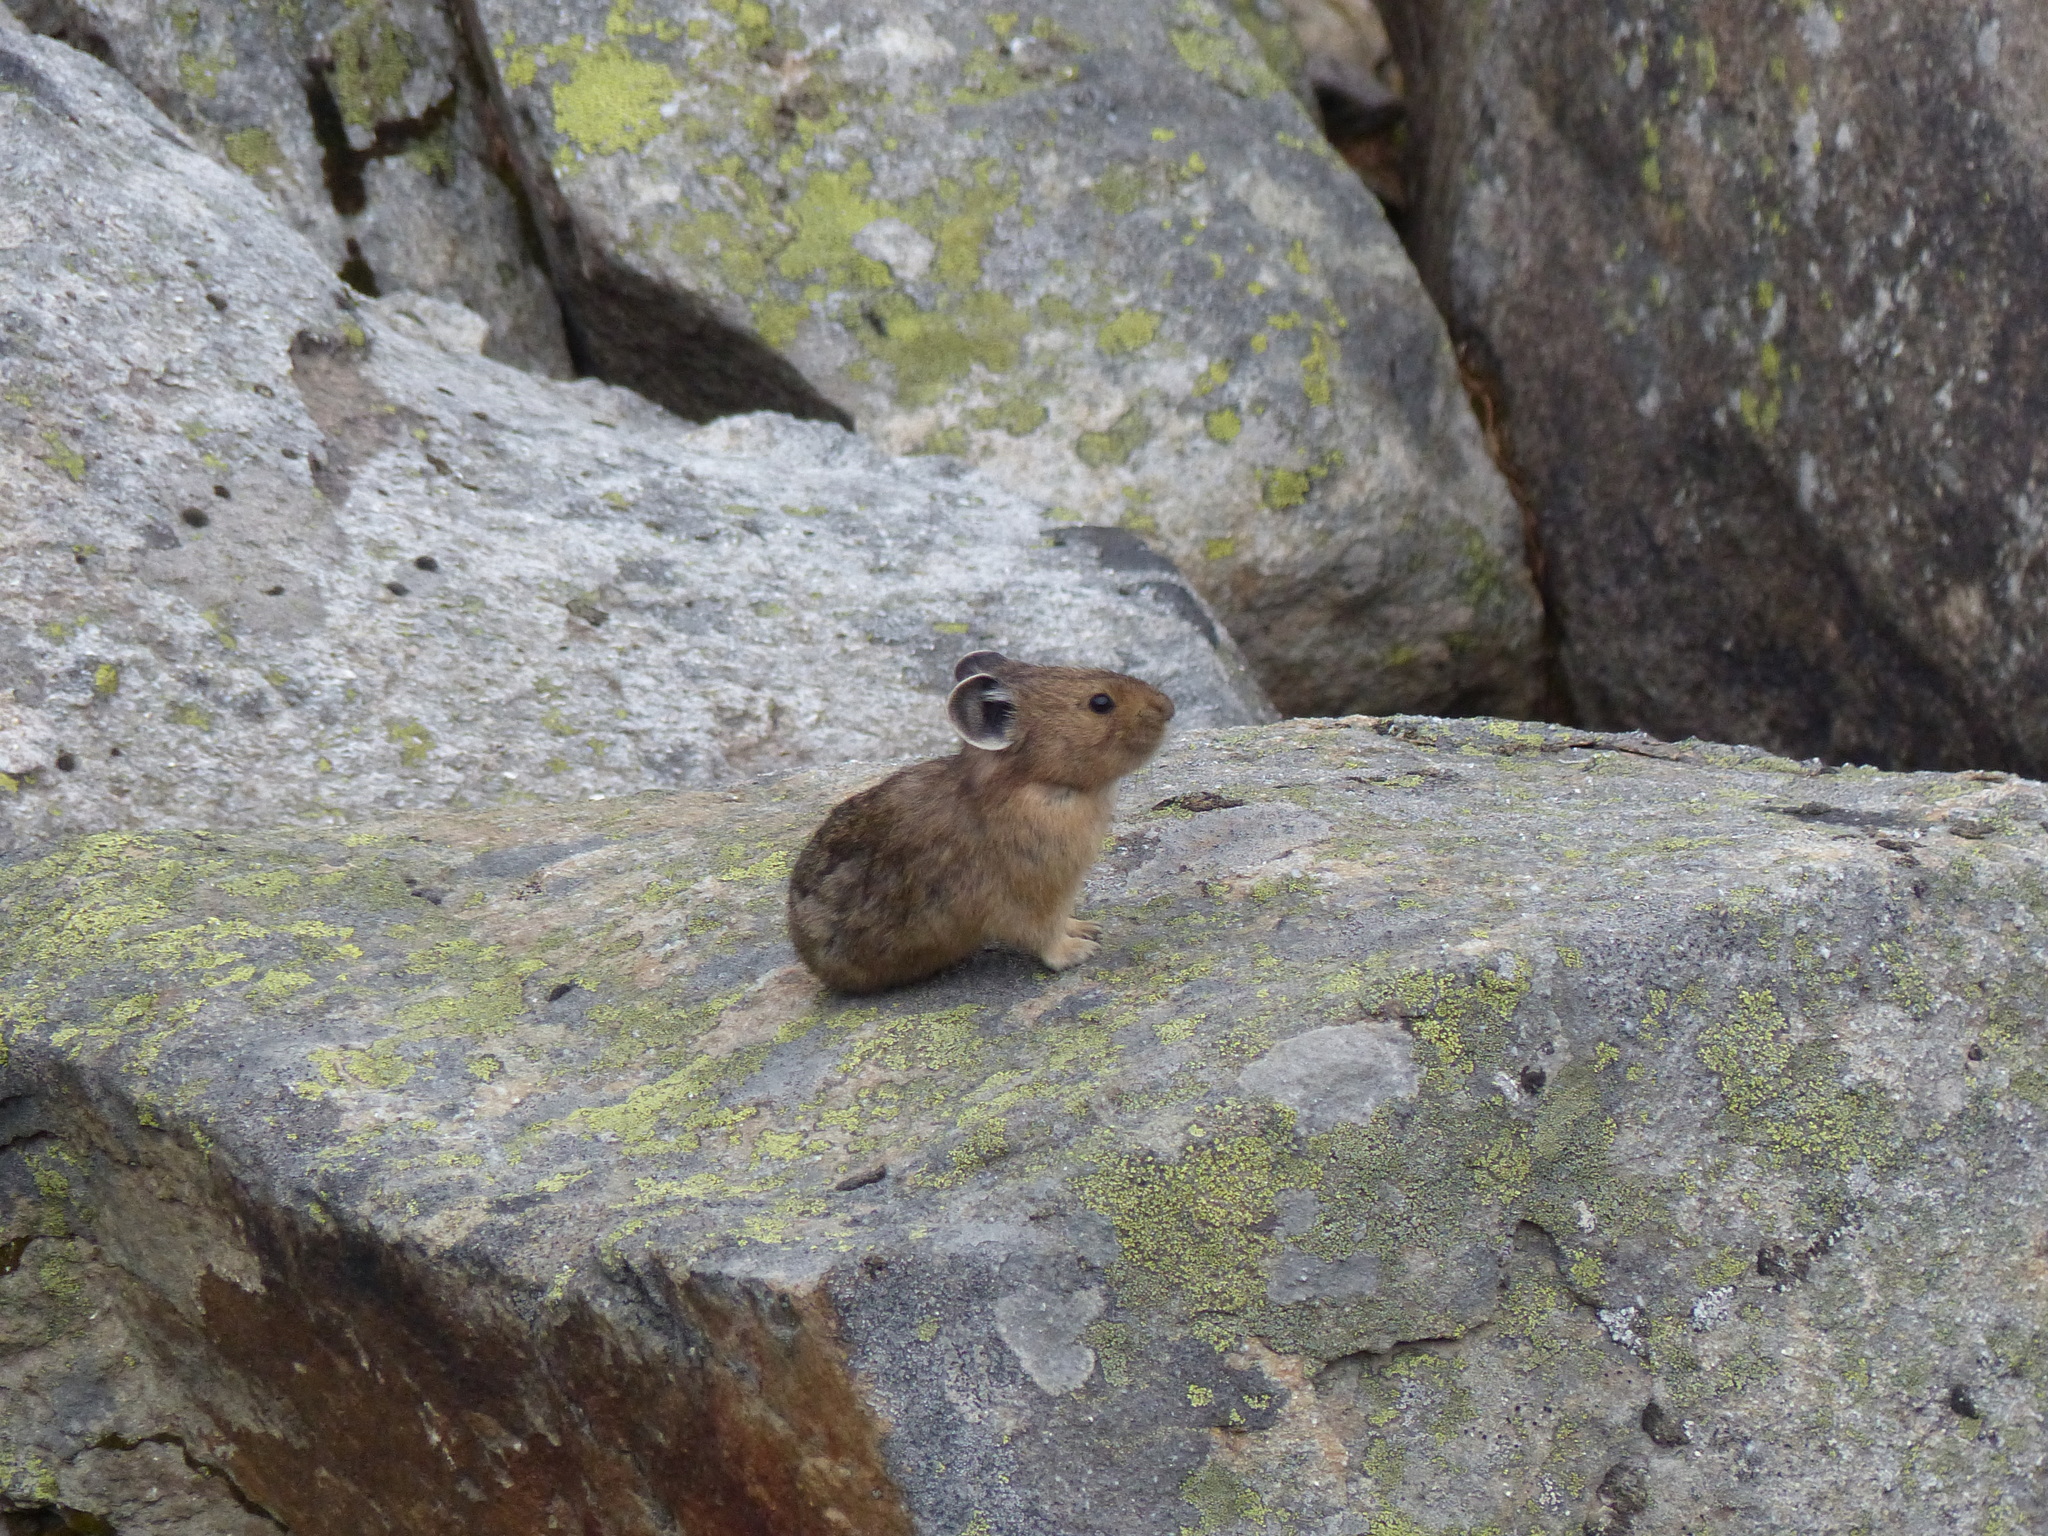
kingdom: Animalia
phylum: Chordata
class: Mammalia
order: Lagomorpha
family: Ochotonidae
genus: Ochotona
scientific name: Ochotona princeps
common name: American pika
